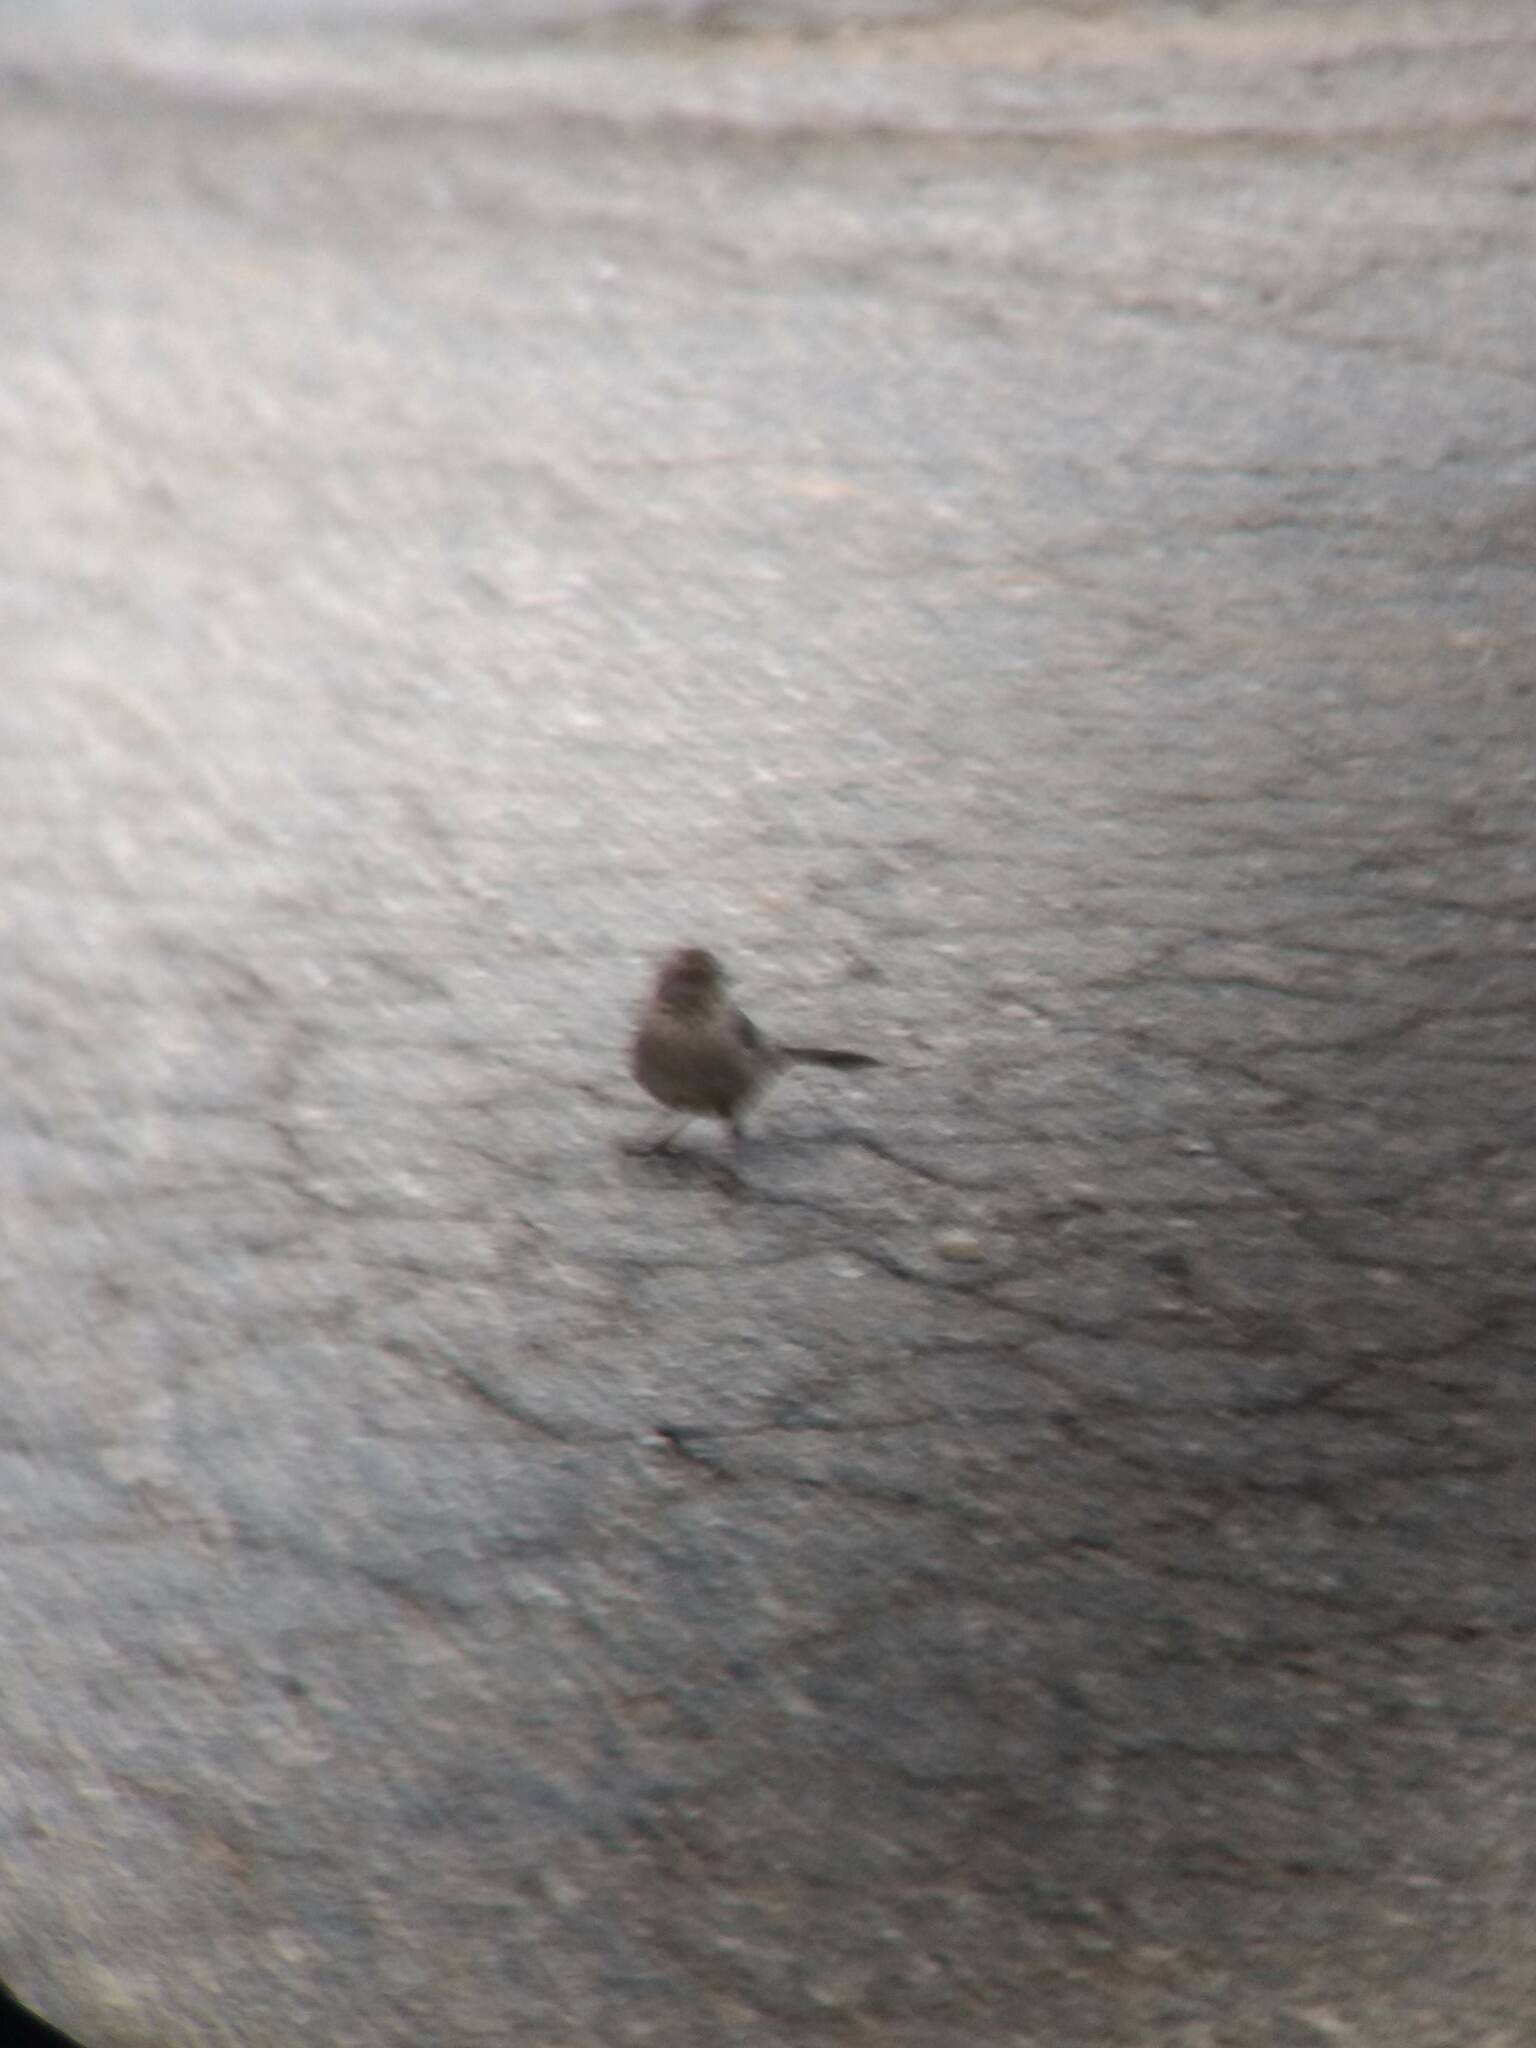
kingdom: Animalia
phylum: Chordata
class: Aves
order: Passeriformes
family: Passerellidae
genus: Melozone
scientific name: Melozone crissalis
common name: California towhee
